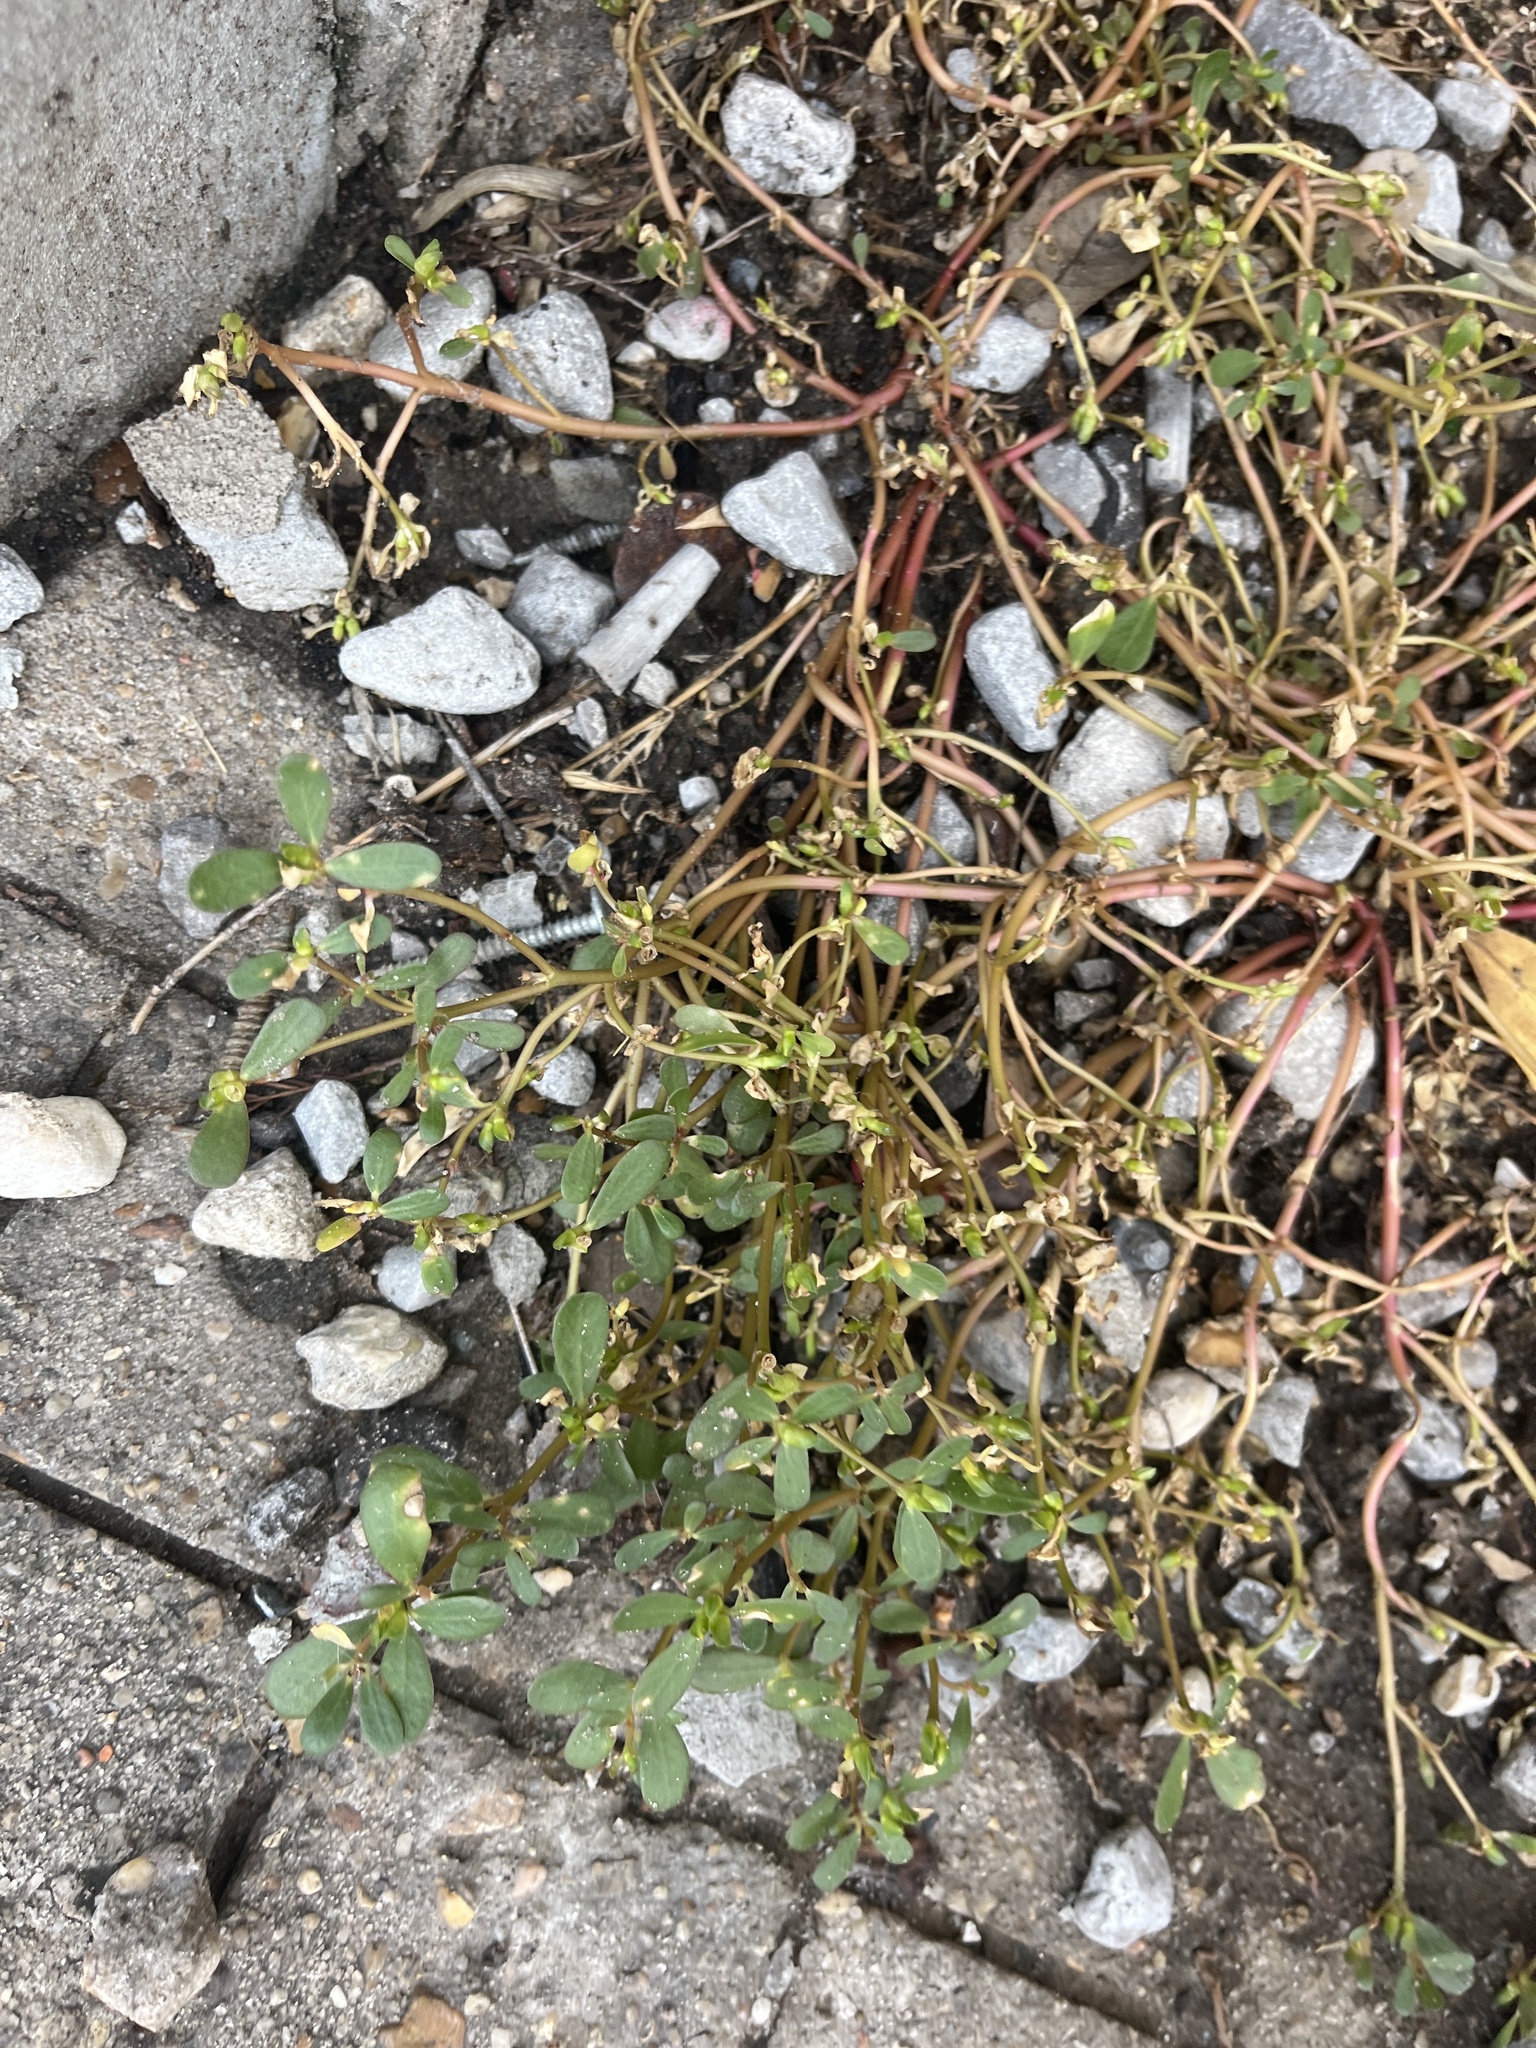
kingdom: Plantae
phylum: Tracheophyta
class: Magnoliopsida
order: Caryophyllales
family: Portulacaceae
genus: Portulaca
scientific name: Portulaca oleracea
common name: Common purslane
